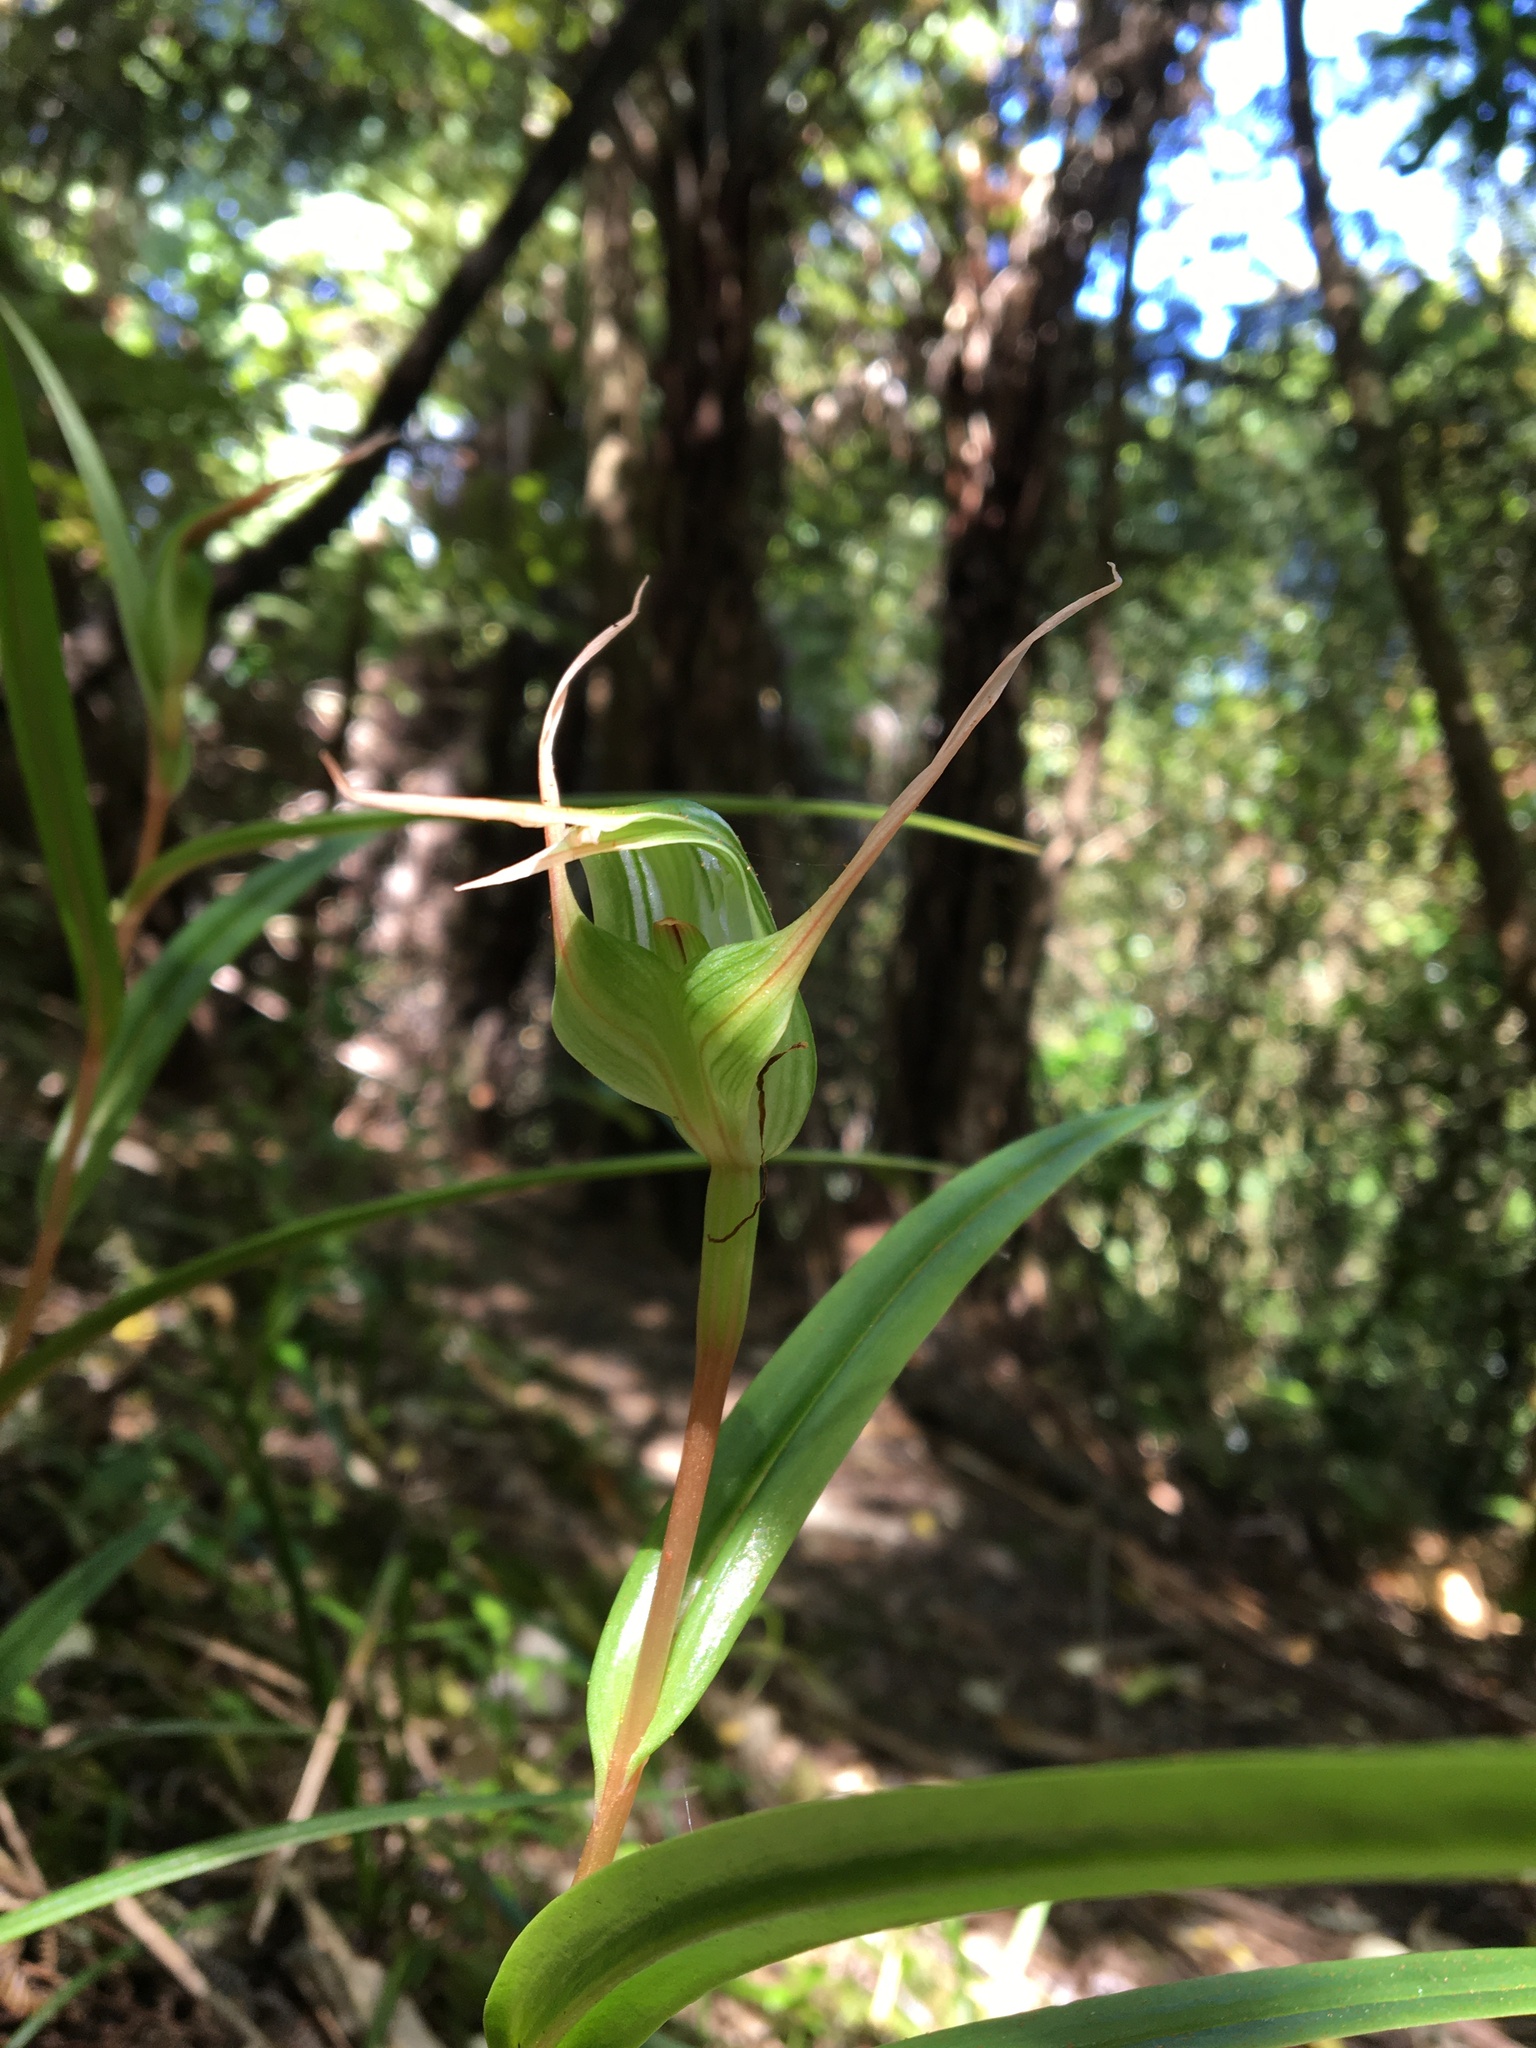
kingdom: Plantae
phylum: Tracheophyta
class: Liliopsida
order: Asparagales
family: Orchidaceae
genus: Pterostylis
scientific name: Pterostylis banksii
